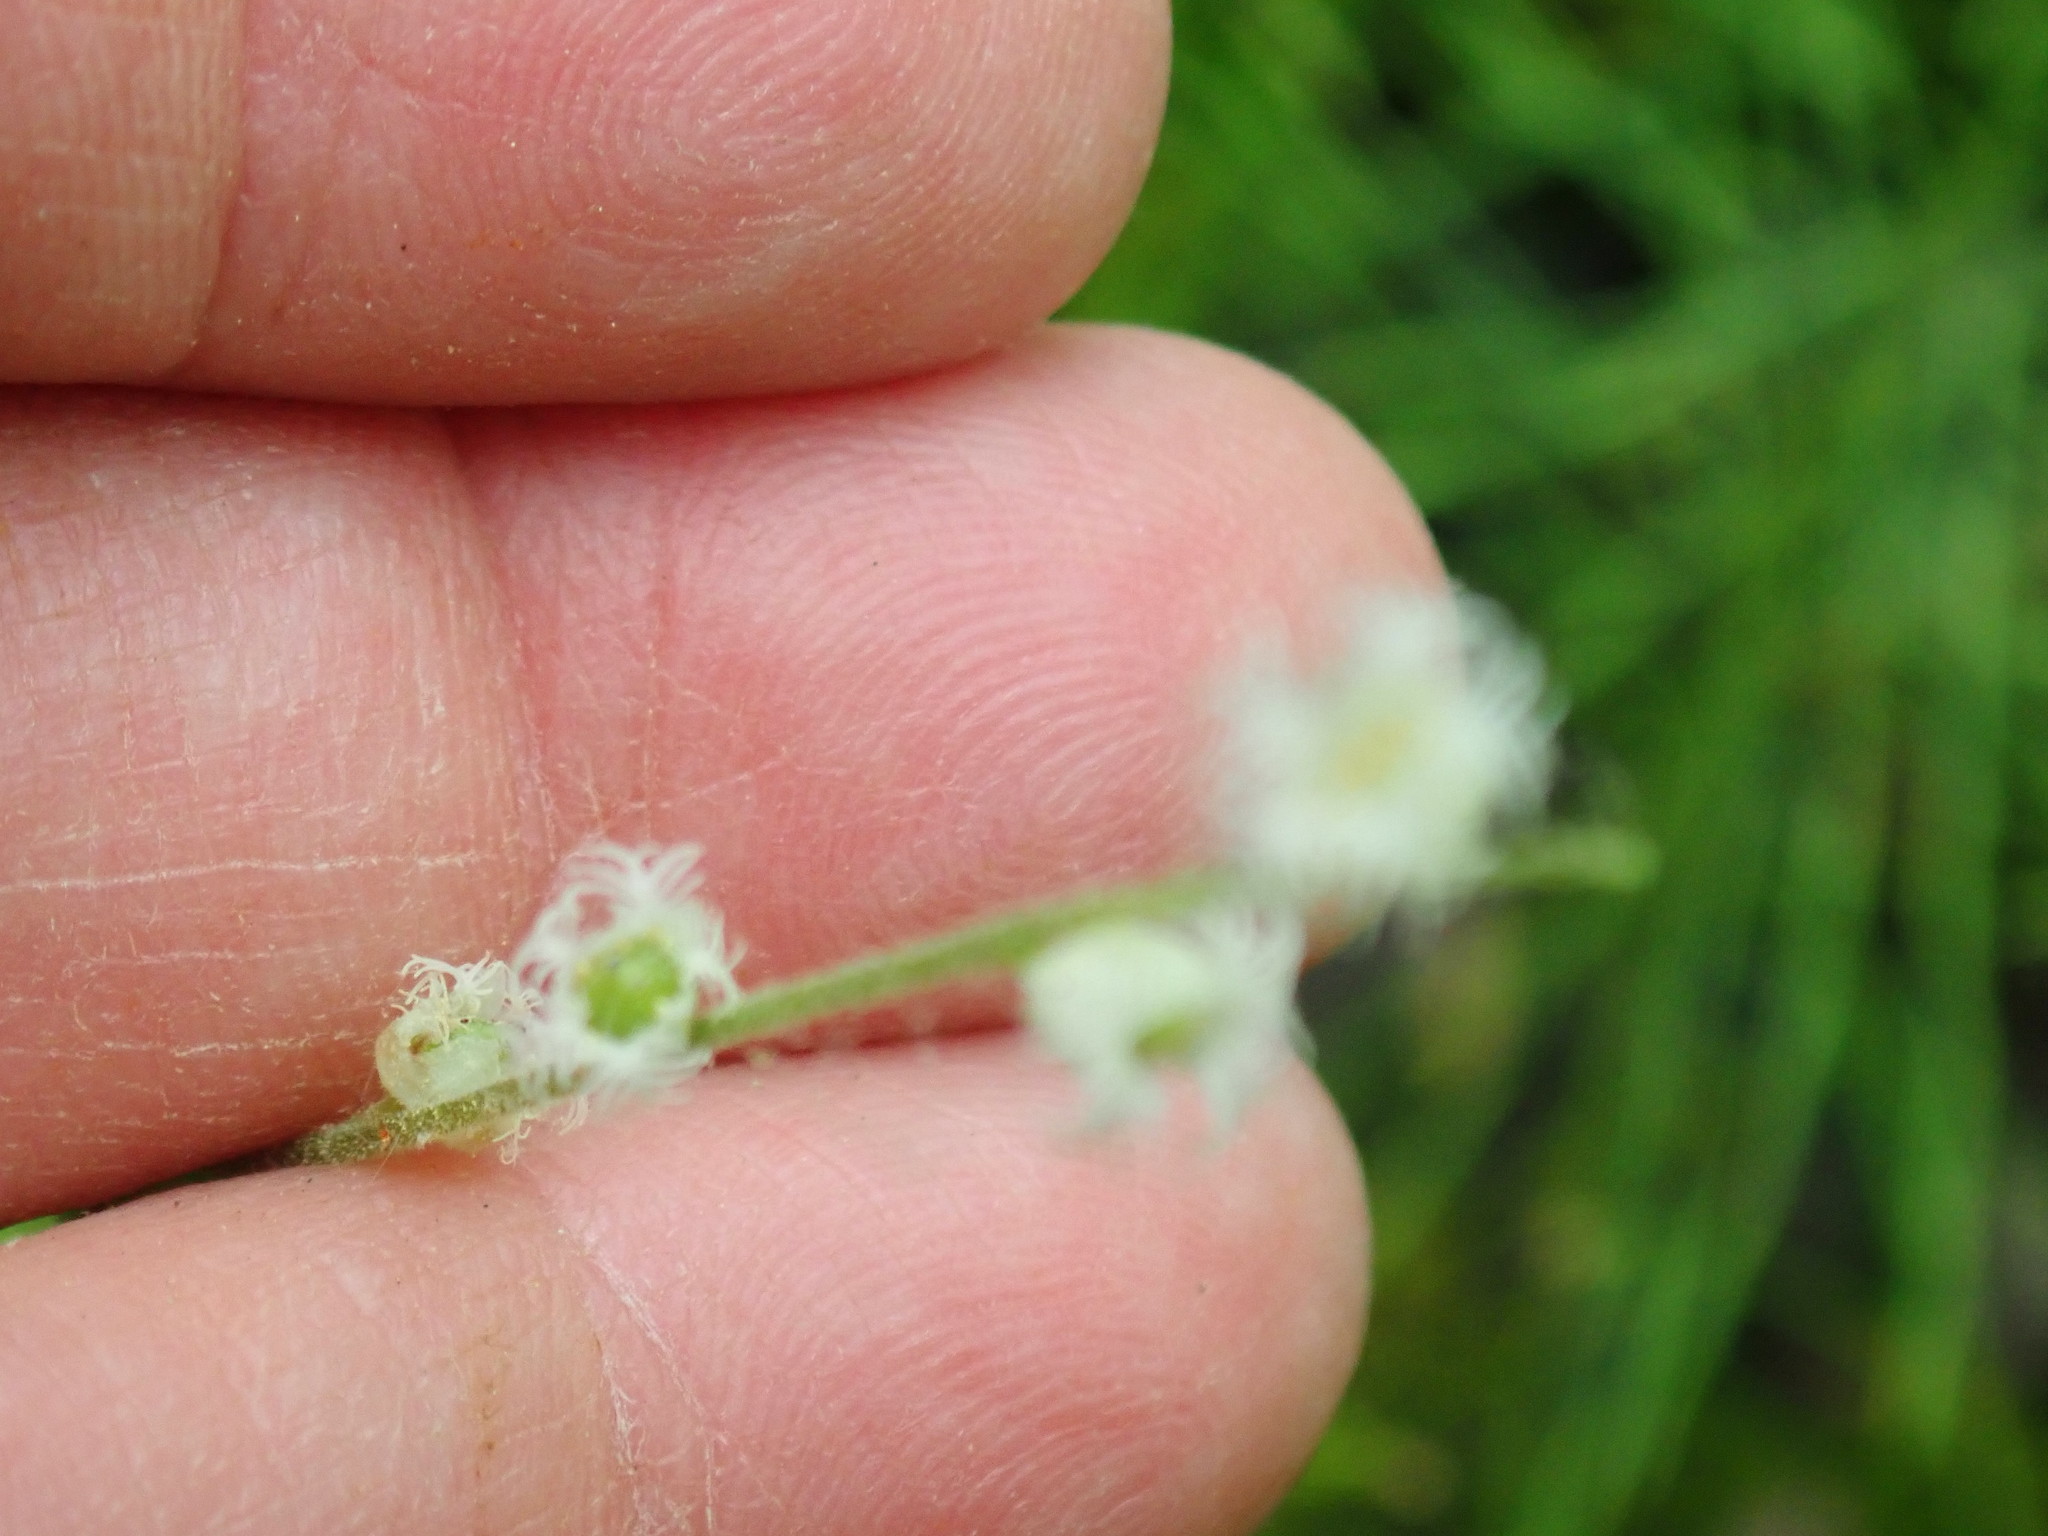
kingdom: Plantae
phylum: Tracheophyta
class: Magnoliopsida
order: Saxifragales
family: Saxifragaceae
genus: Mitella
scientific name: Mitella diphylla
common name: Coolwort
